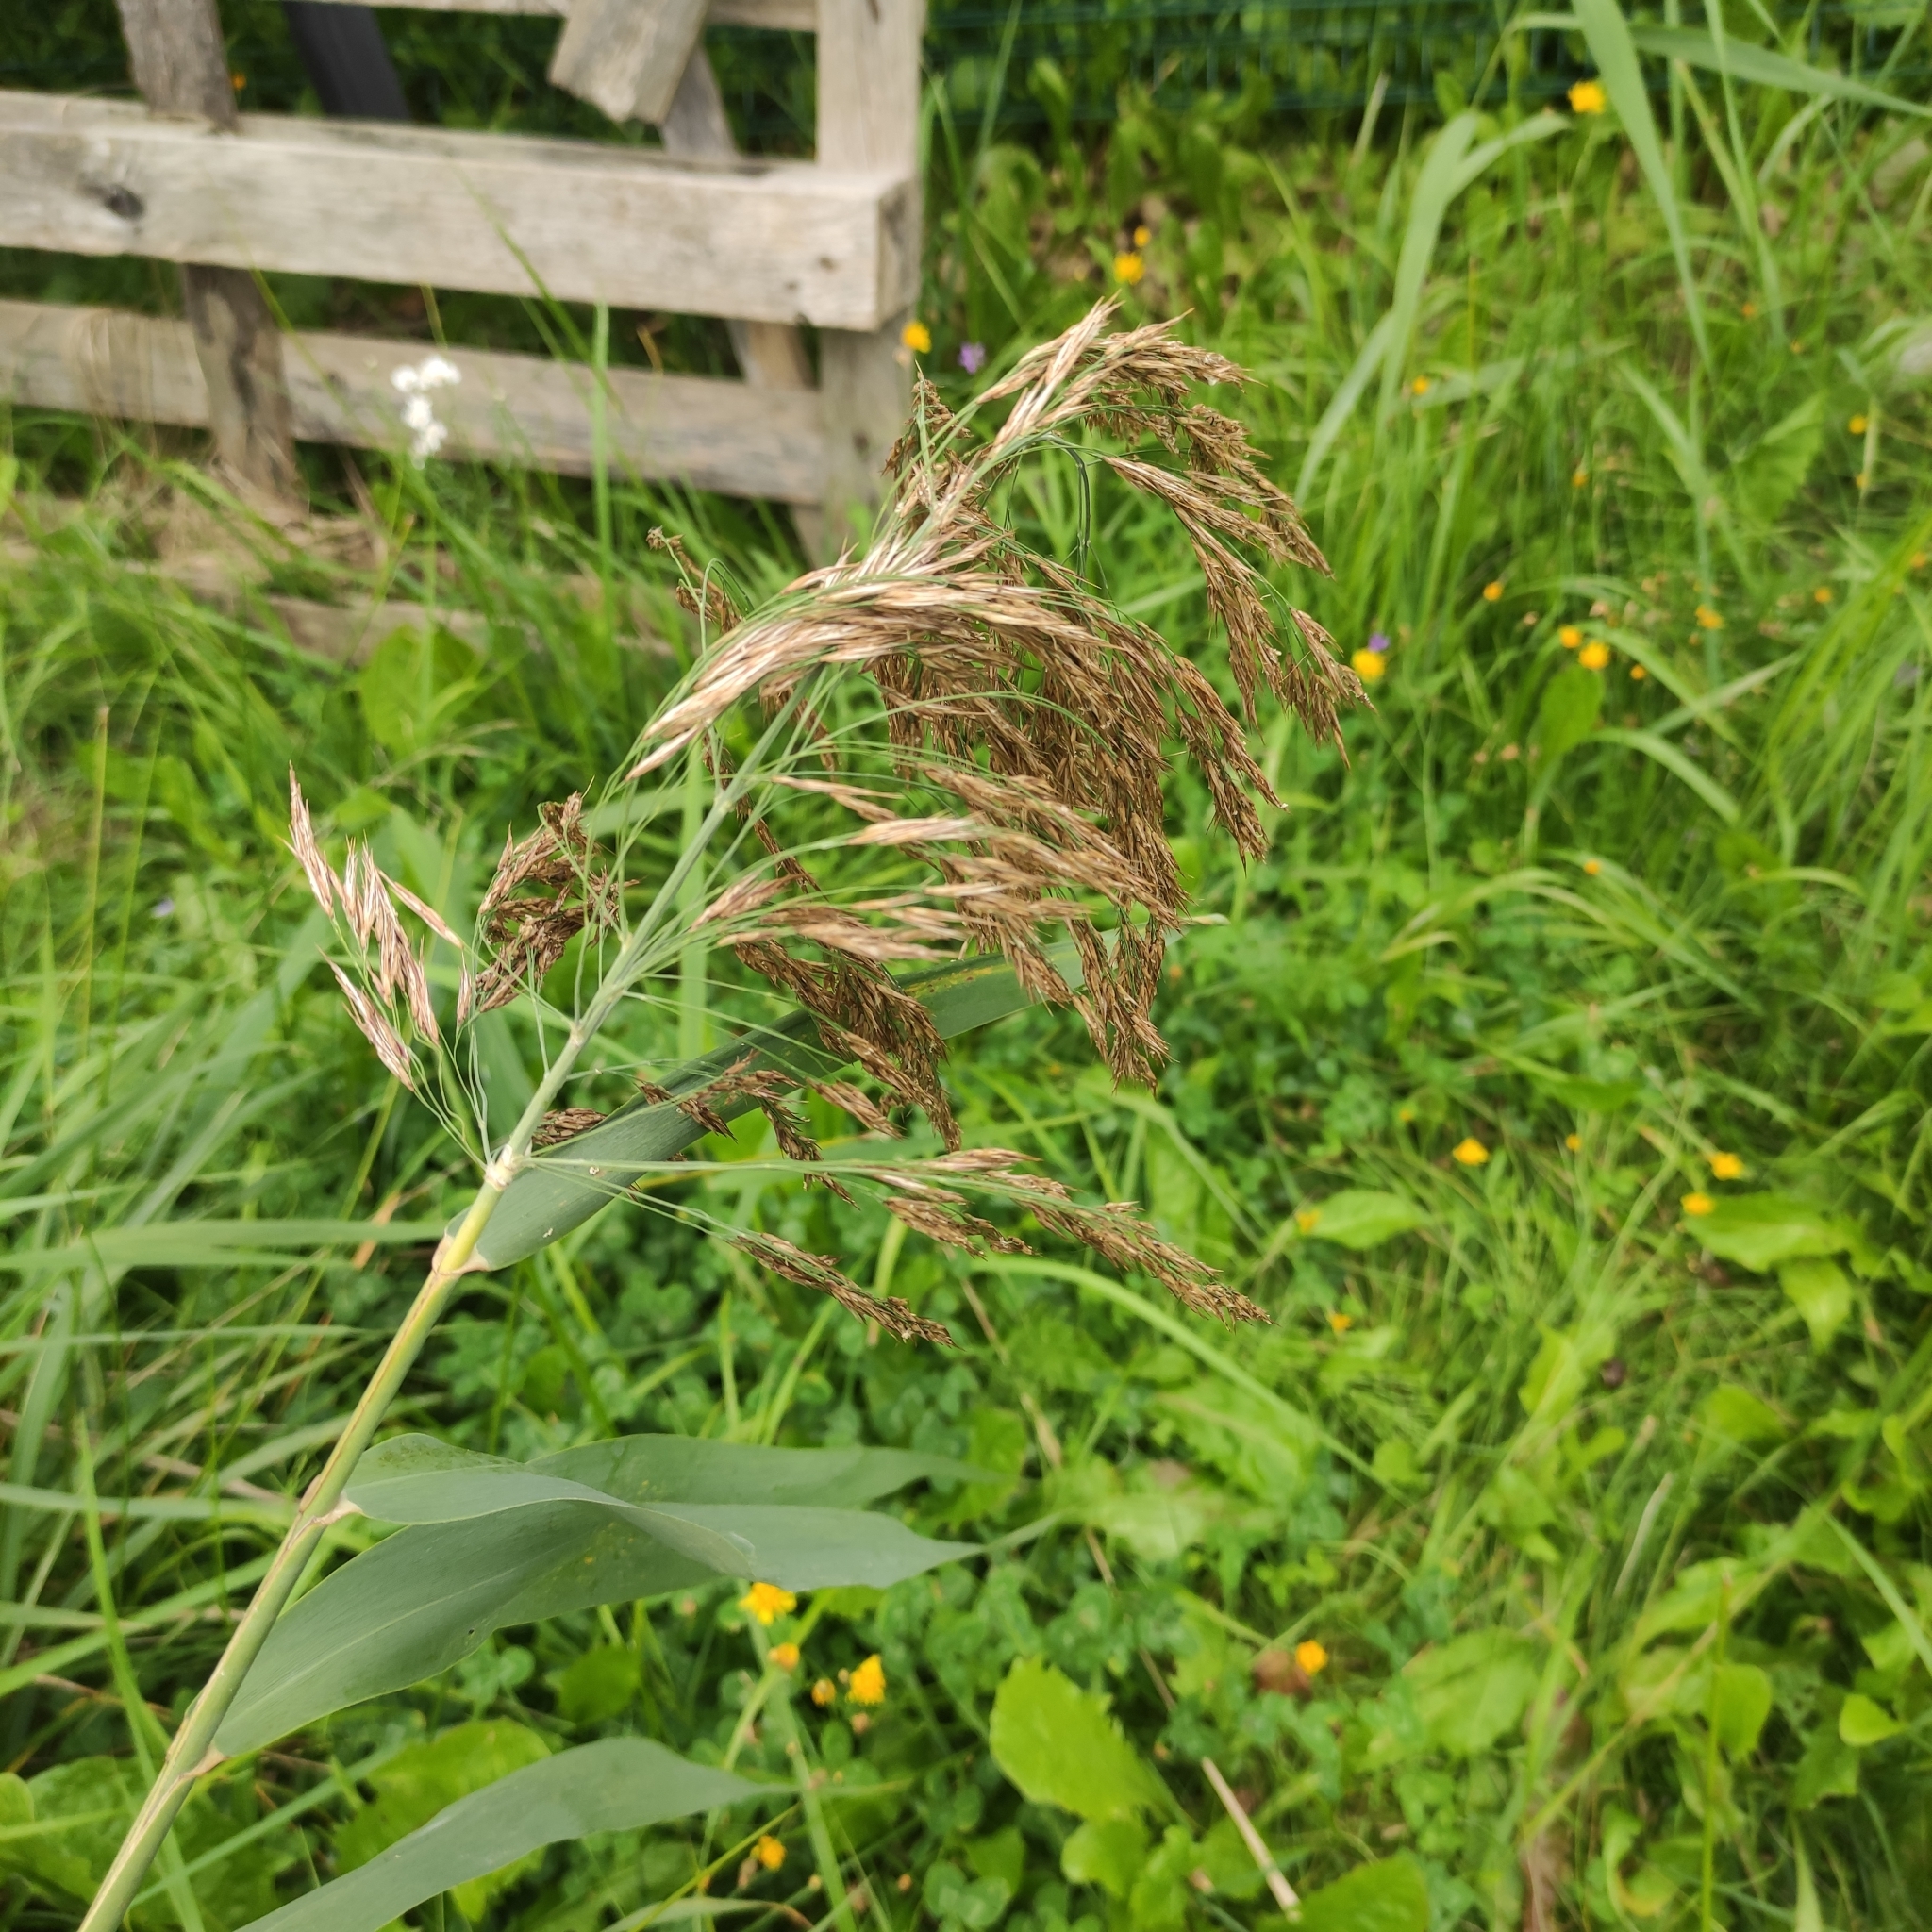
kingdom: Plantae
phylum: Tracheophyta
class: Liliopsida
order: Poales
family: Poaceae
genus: Phragmites
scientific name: Phragmites australis
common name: Common reed
